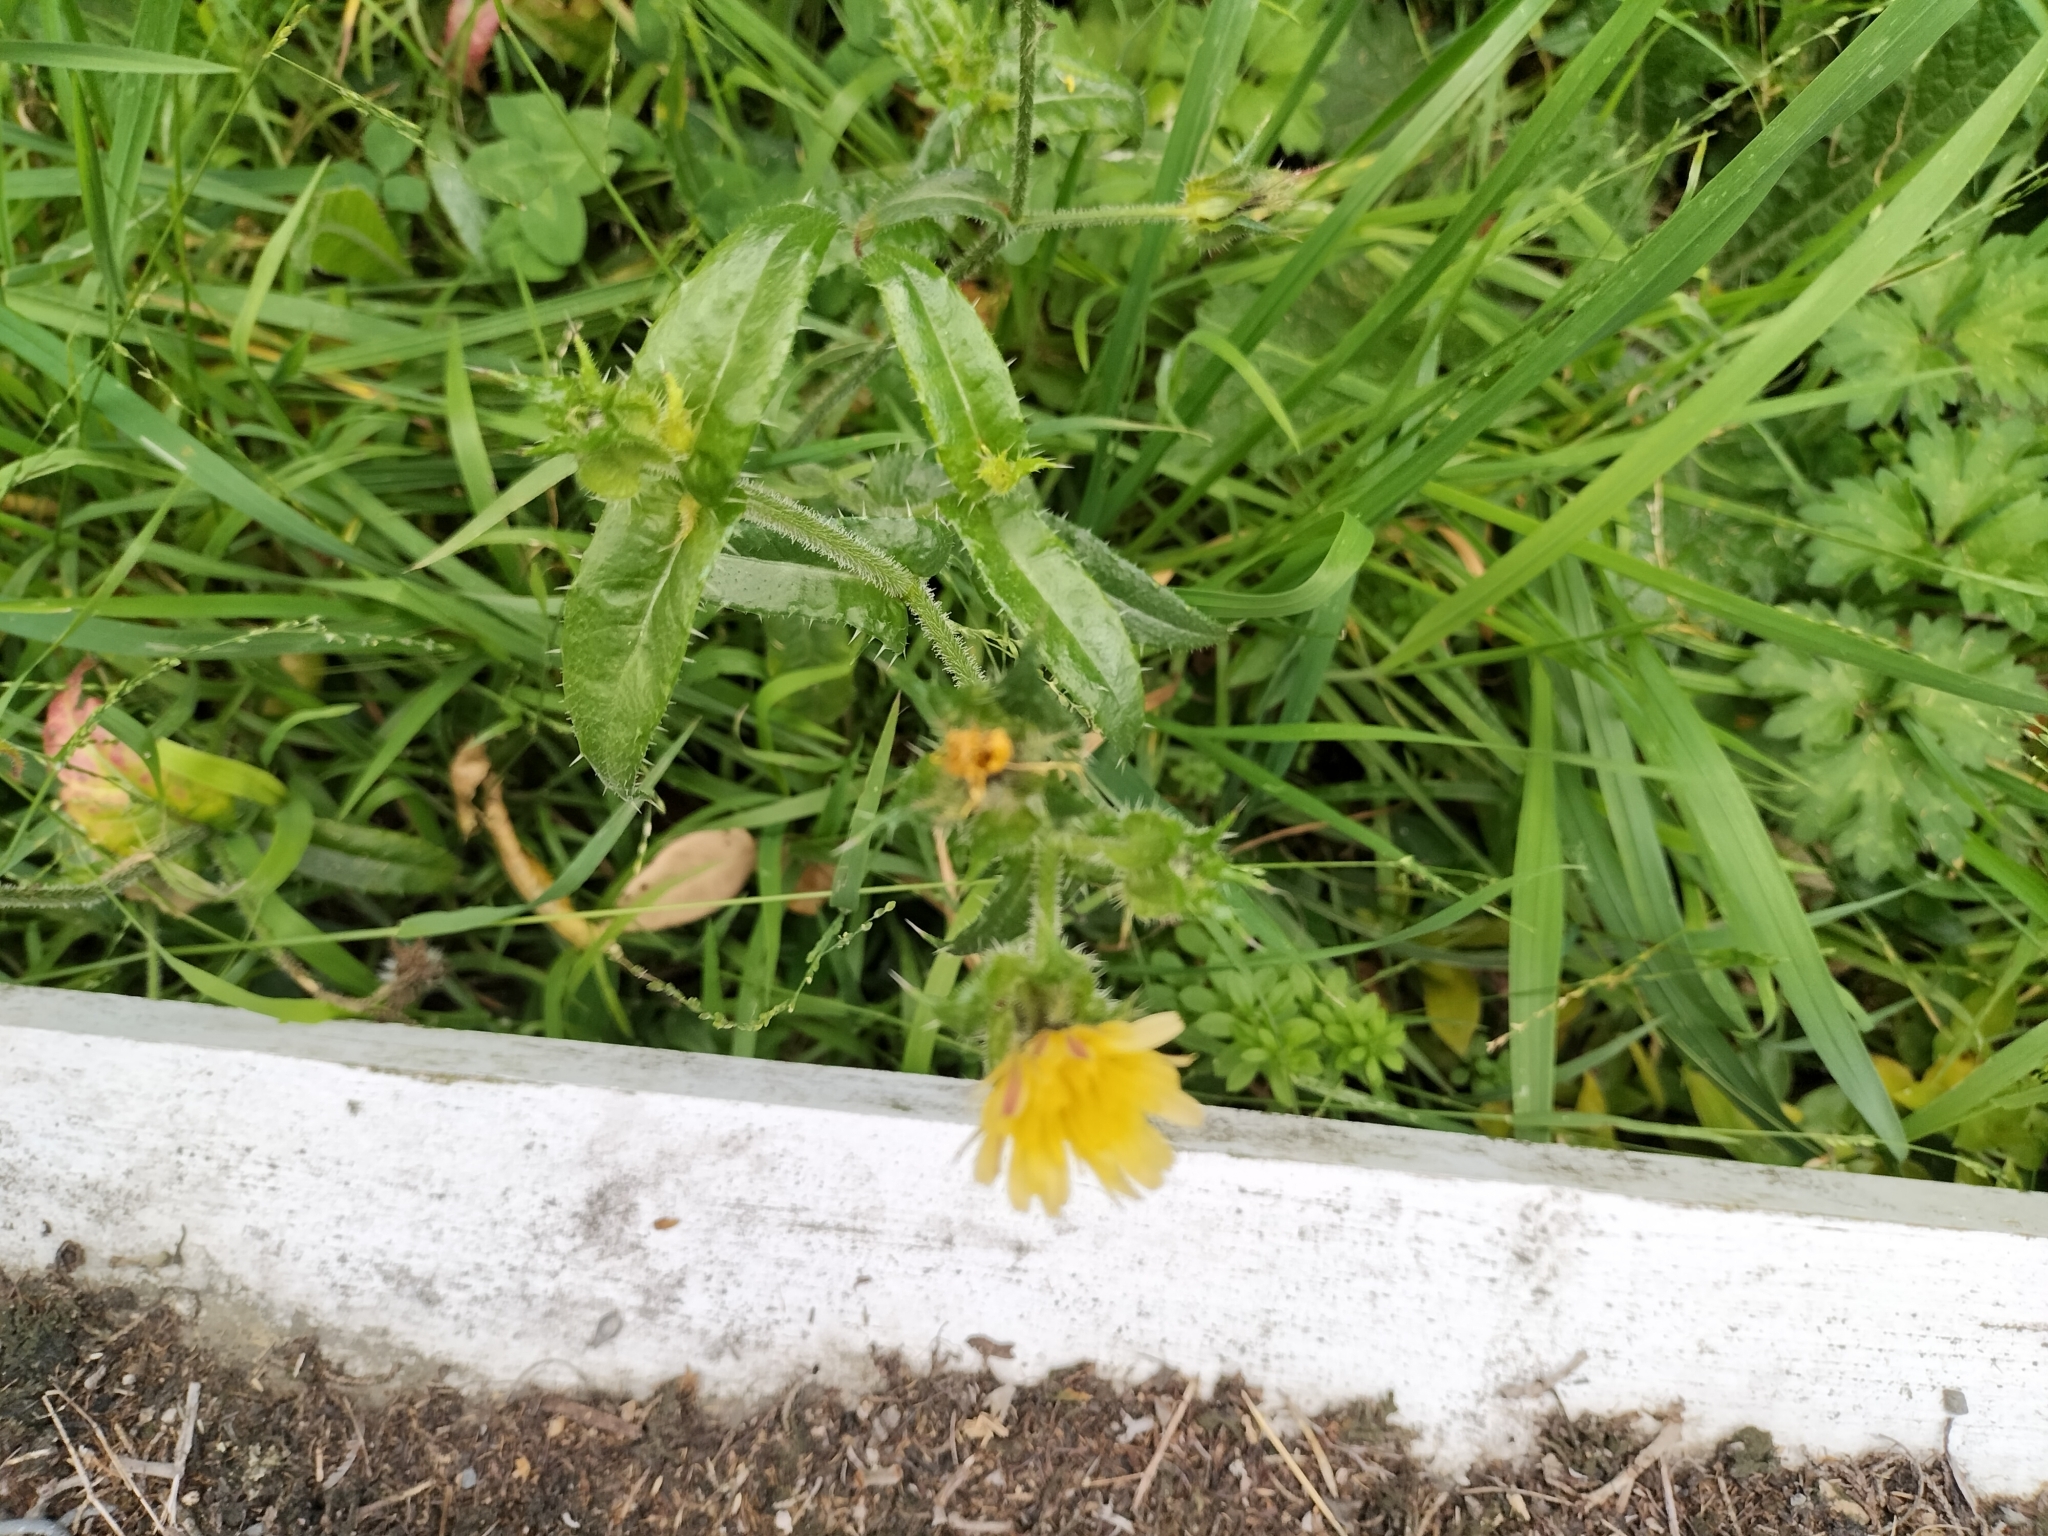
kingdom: Plantae
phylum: Tracheophyta
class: Magnoliopsida
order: Asterales
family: Asteraceae
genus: Helminthotheca
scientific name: Helminthotheca echioides
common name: Ox-tongue
